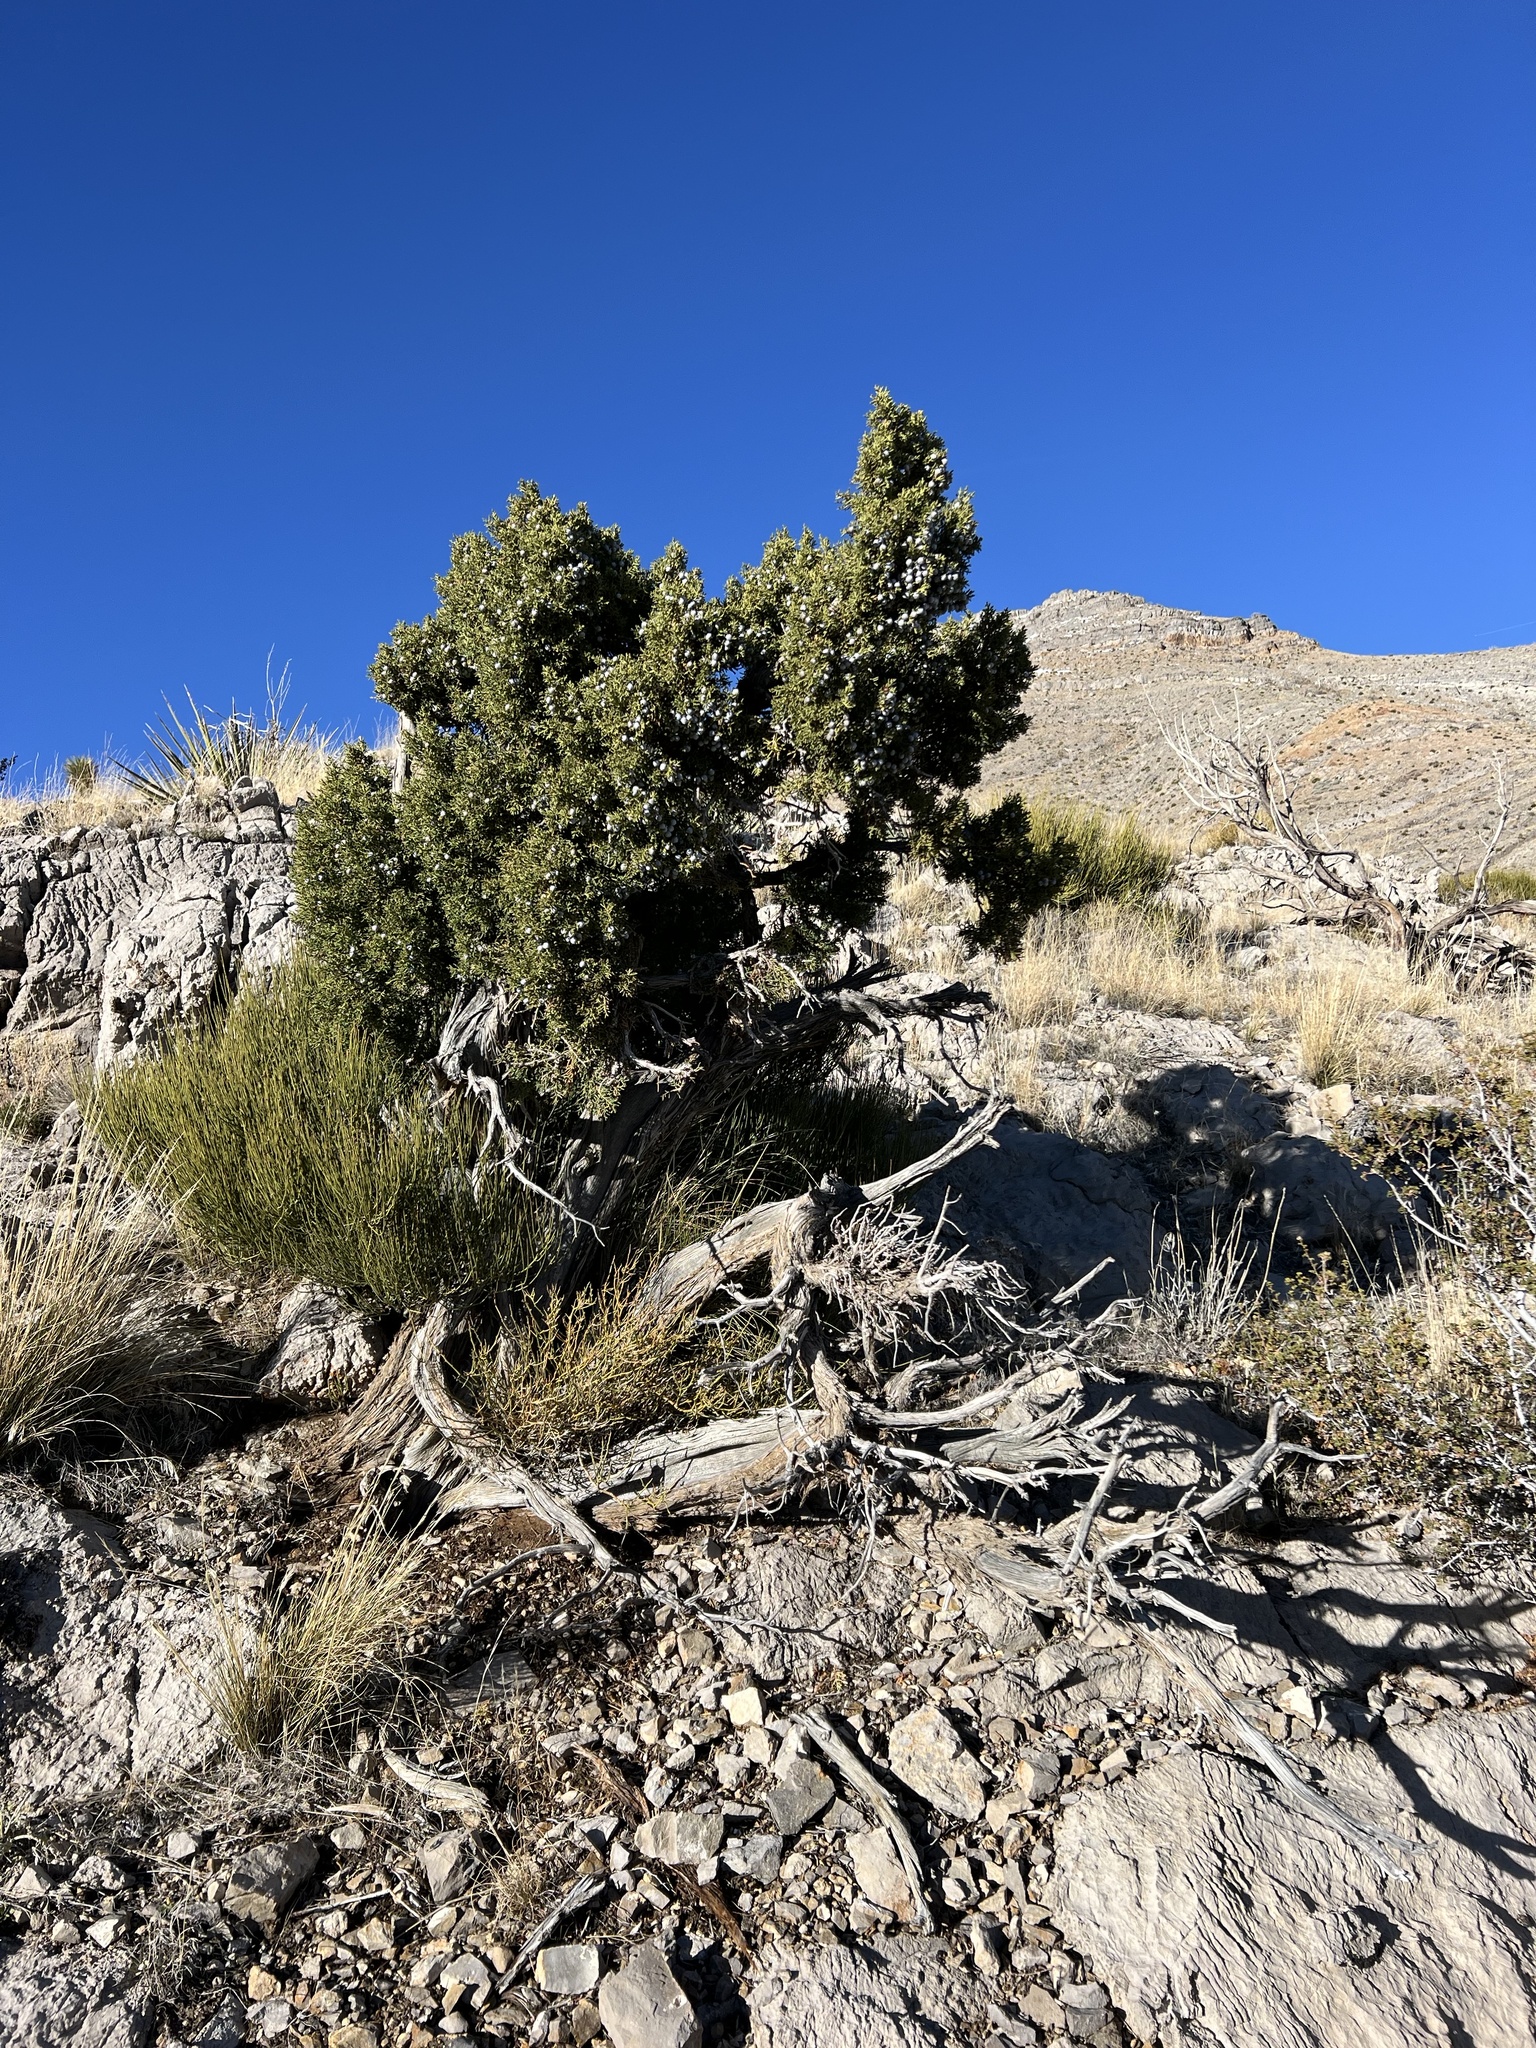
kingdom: Plantae
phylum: Tracheophyta
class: Pinopsida
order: Pinales
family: Cupressaceae
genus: Juniperus
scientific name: Juniperus osteosperma
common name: Utah juniper
